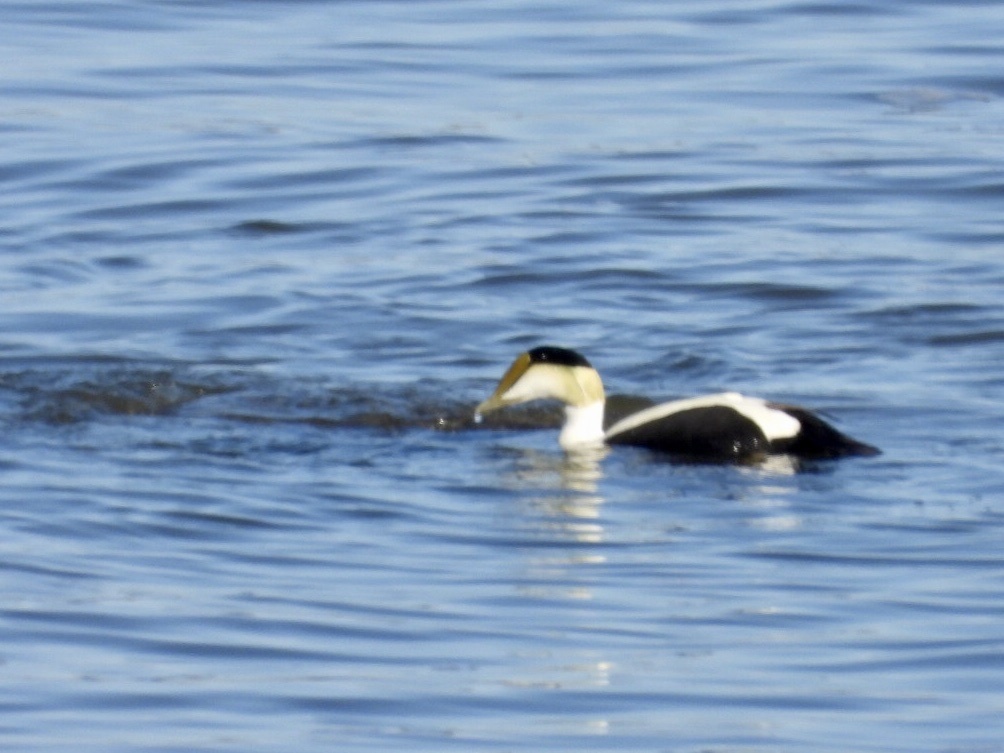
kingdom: Animalia
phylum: Chordata
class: Aves
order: Anseriformes
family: Anatidae
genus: Somateria
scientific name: Somateria mollissima
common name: Common eider
